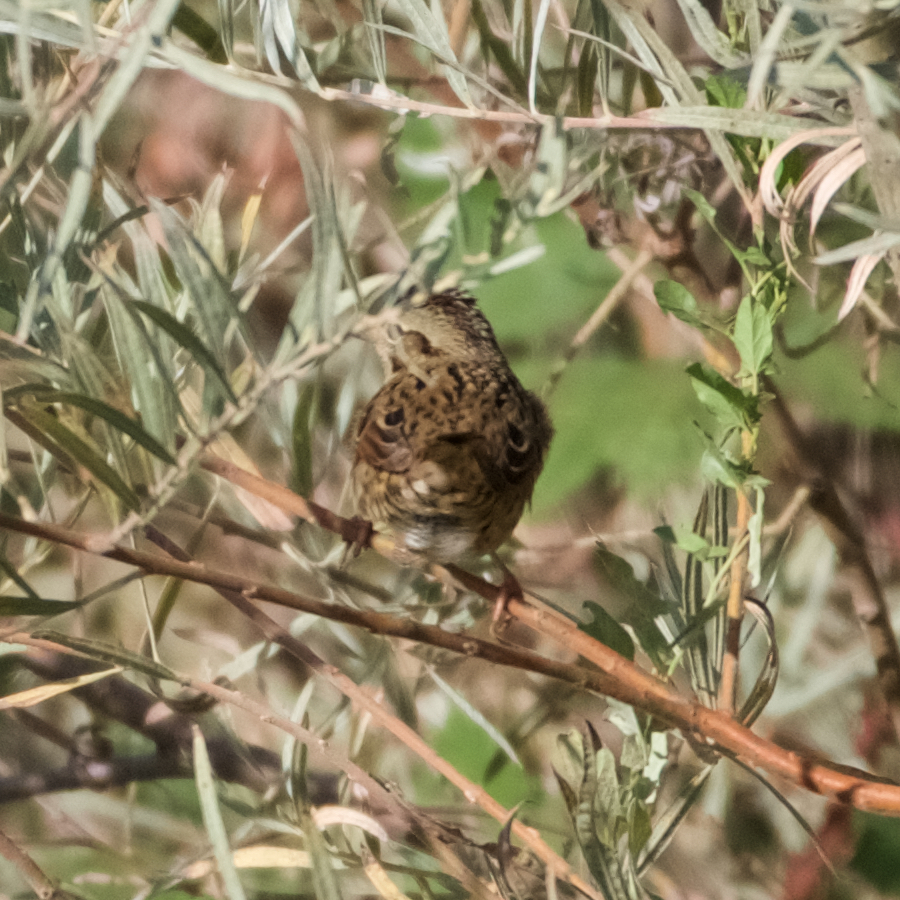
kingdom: Animalia
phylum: Chordata
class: Aves
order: Passeriformes
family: Passerellidae
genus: Melospiza
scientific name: Melospiza lincolnii
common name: Lincoln's sparrow
